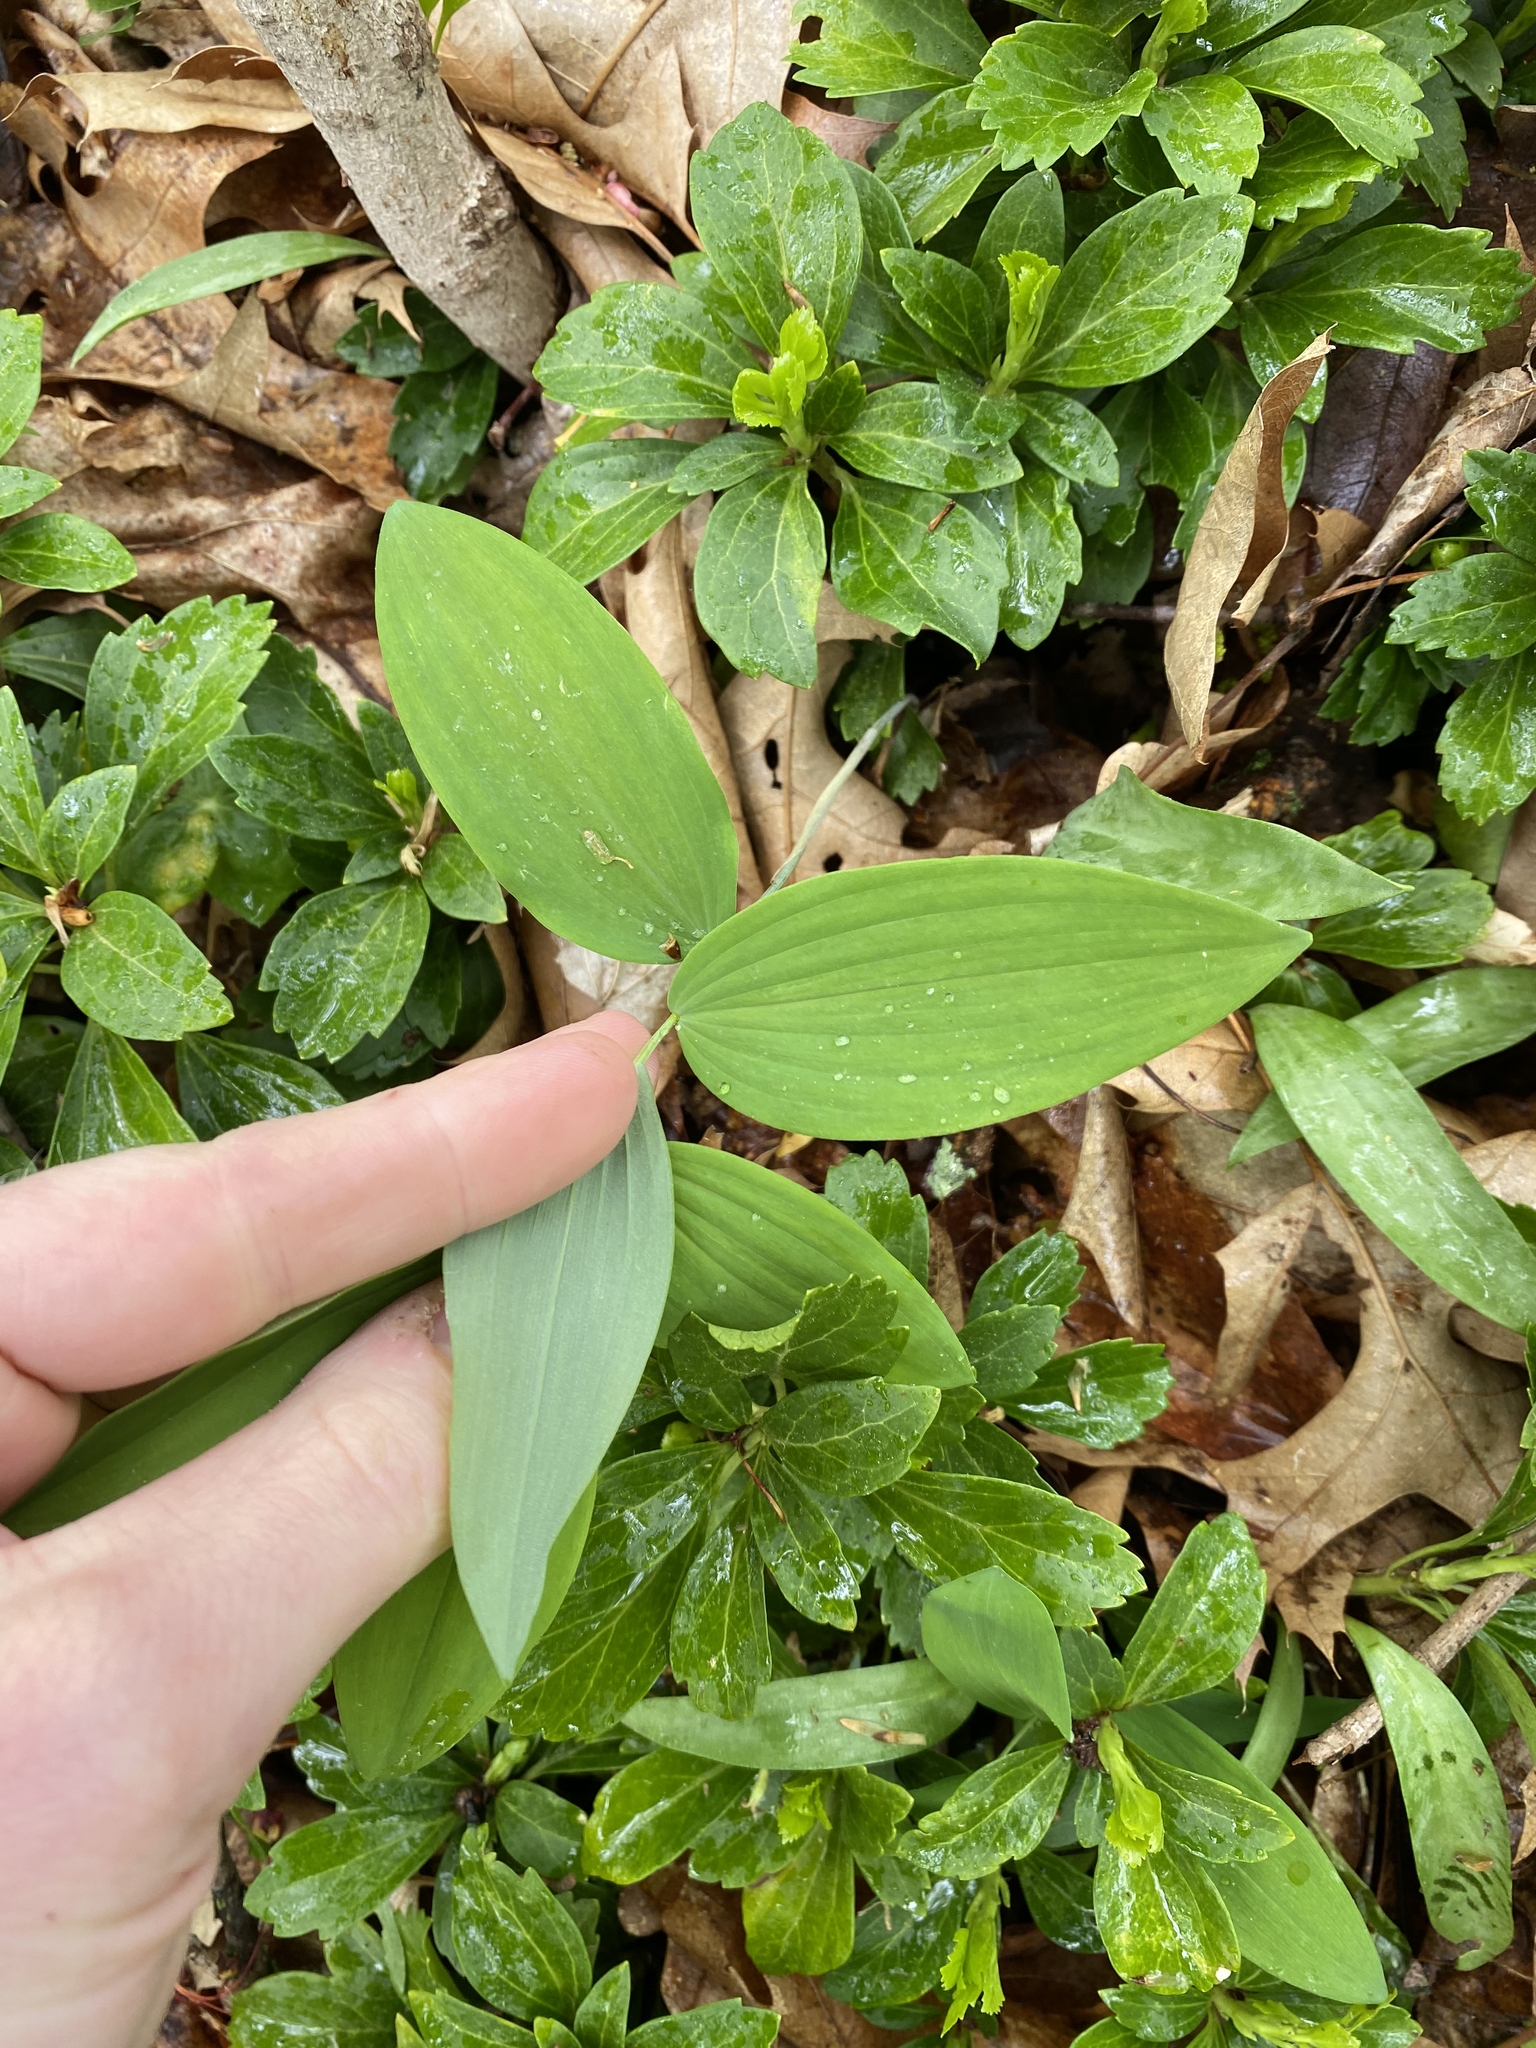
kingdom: Plantae
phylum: Tracheophyta
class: Liliopsida
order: Asparagales
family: Asparagaceae
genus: Polygonatum
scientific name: Polygonatum pubescens
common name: Downy solomon's seal
